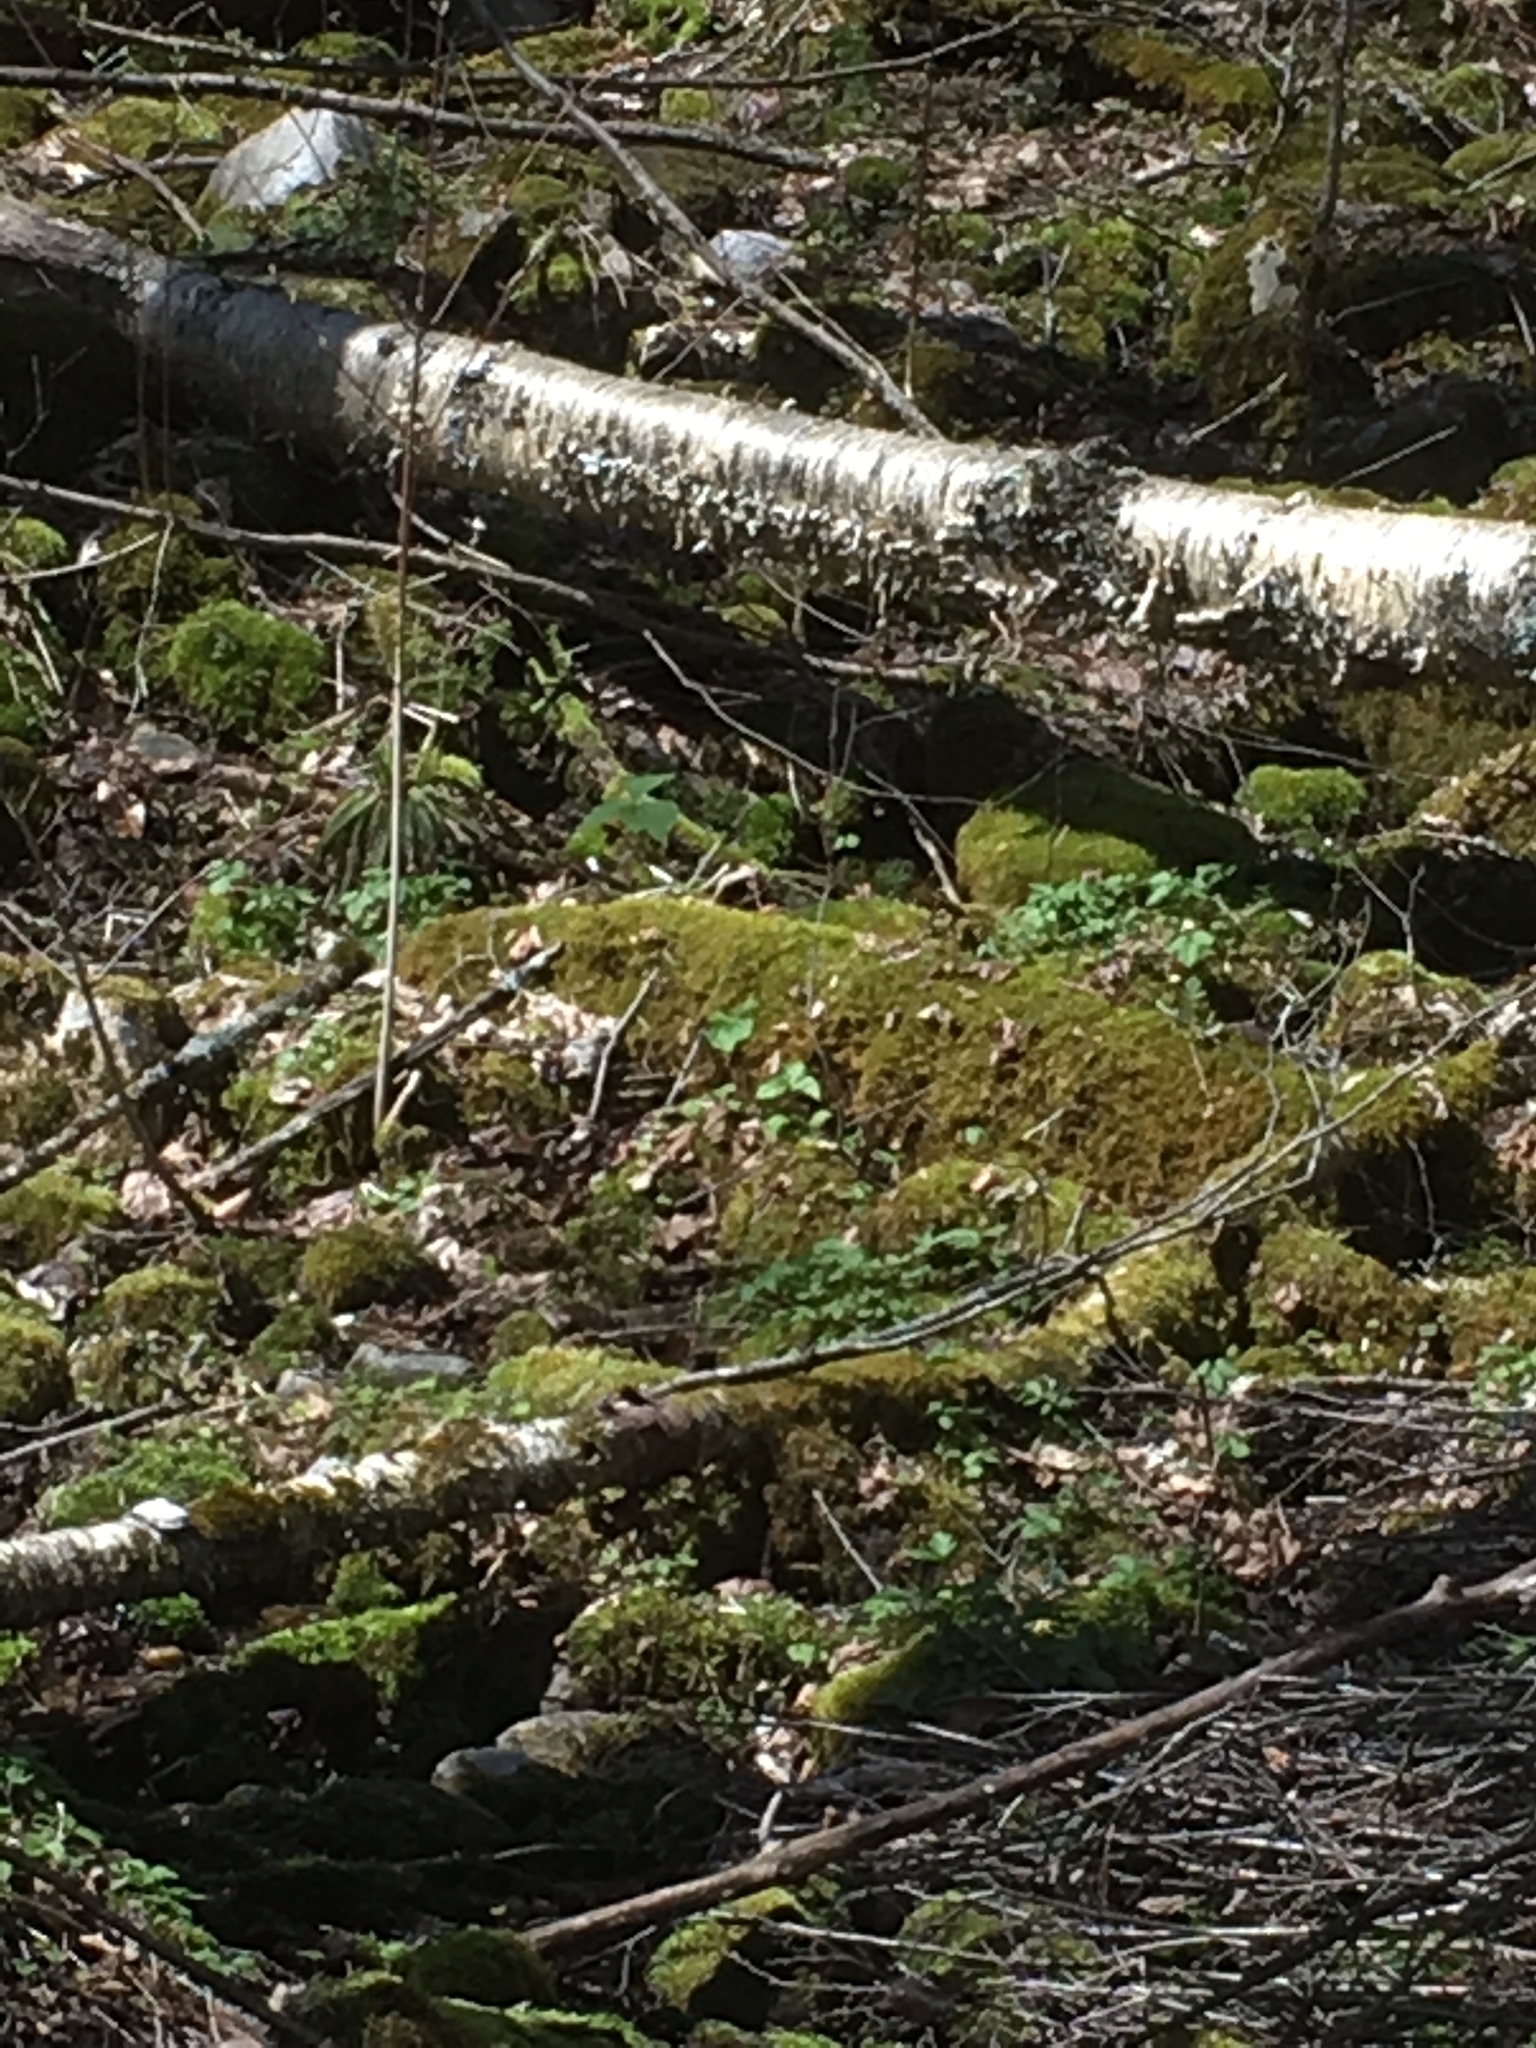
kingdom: Plantae
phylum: Tracheophyta
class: Liliopsida
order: Liliales
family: Melanthiaceae
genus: Trillium
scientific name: Trillium erectum
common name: Purple trillium
